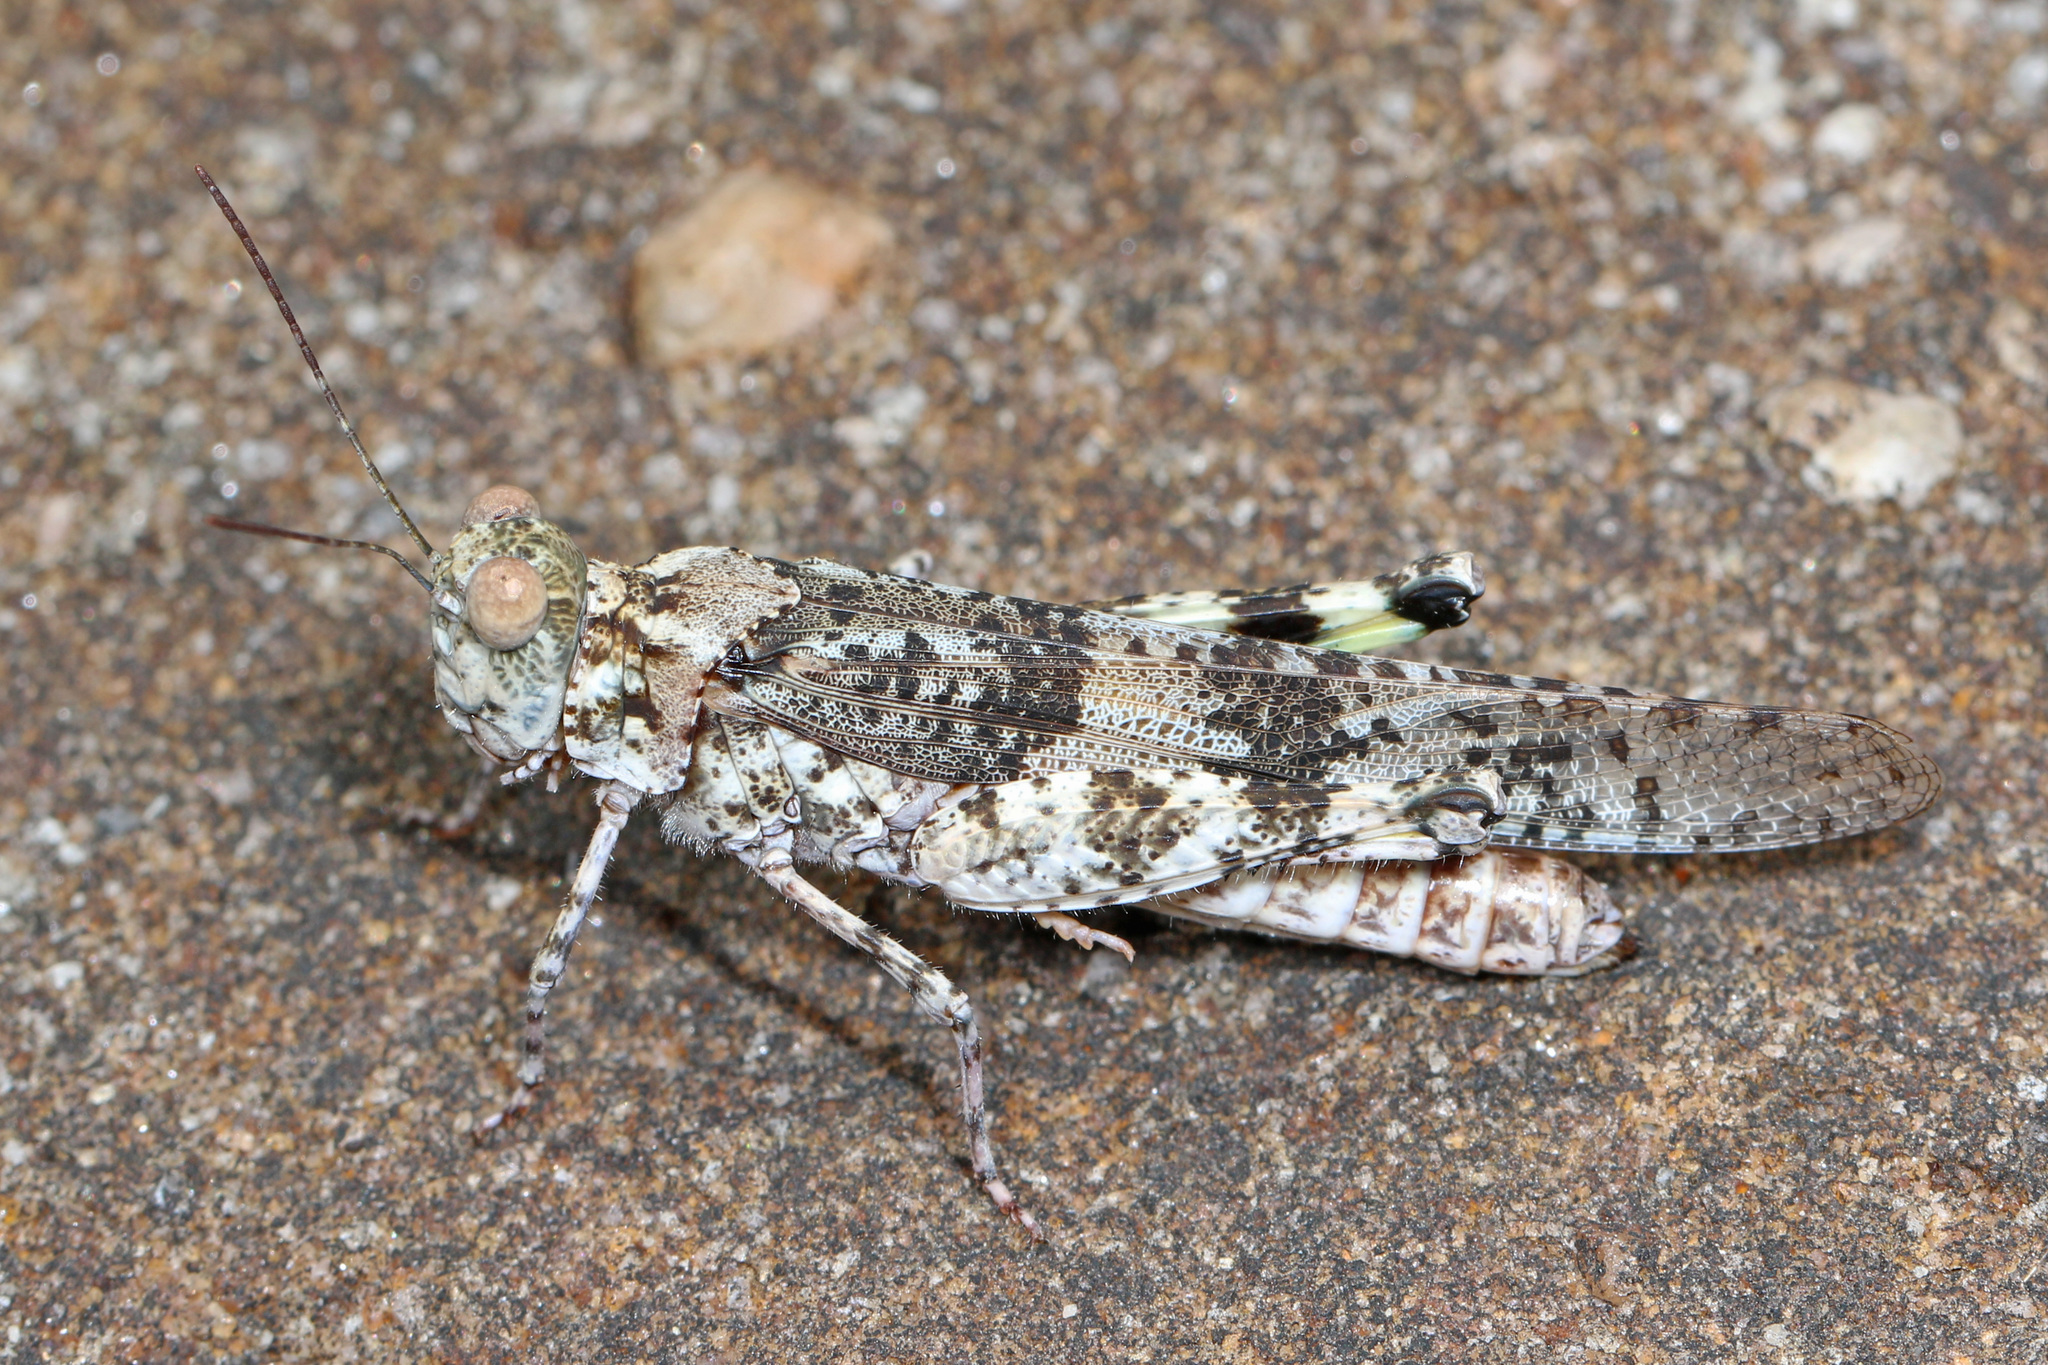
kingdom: Animalia
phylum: Arthropoda
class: Insecta
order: Orthoptera
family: Acrididae
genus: Trimerotropis
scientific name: Trimerotropis saxatilis
